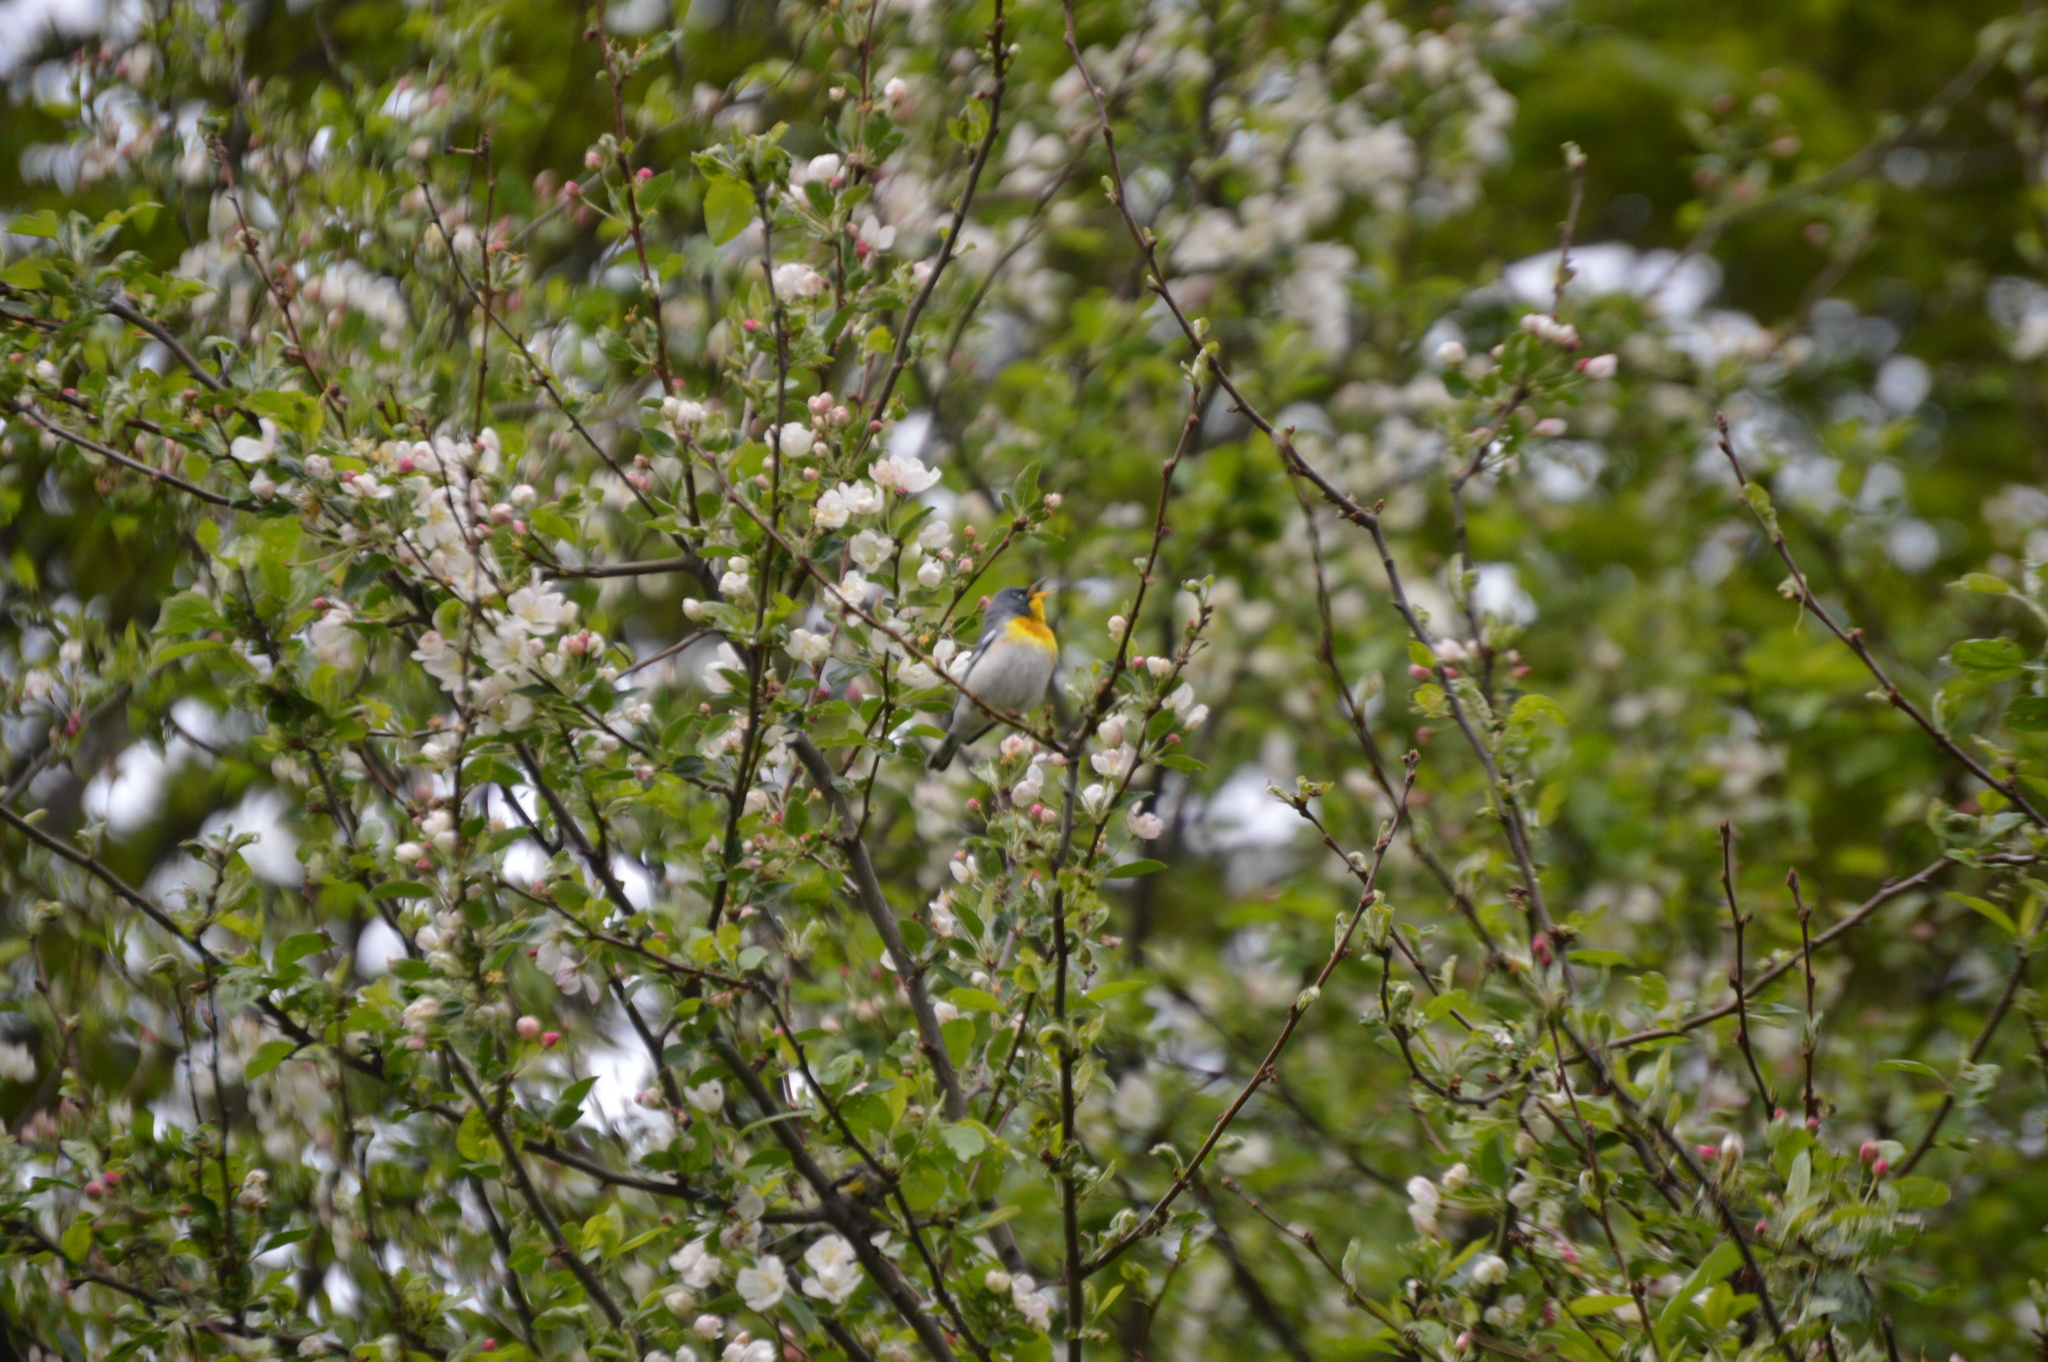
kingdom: Animalia
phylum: Chordata
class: Aves
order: Passeriformes
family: Parulidae
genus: Setophaga
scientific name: Setophaga americana
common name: Northern parula
